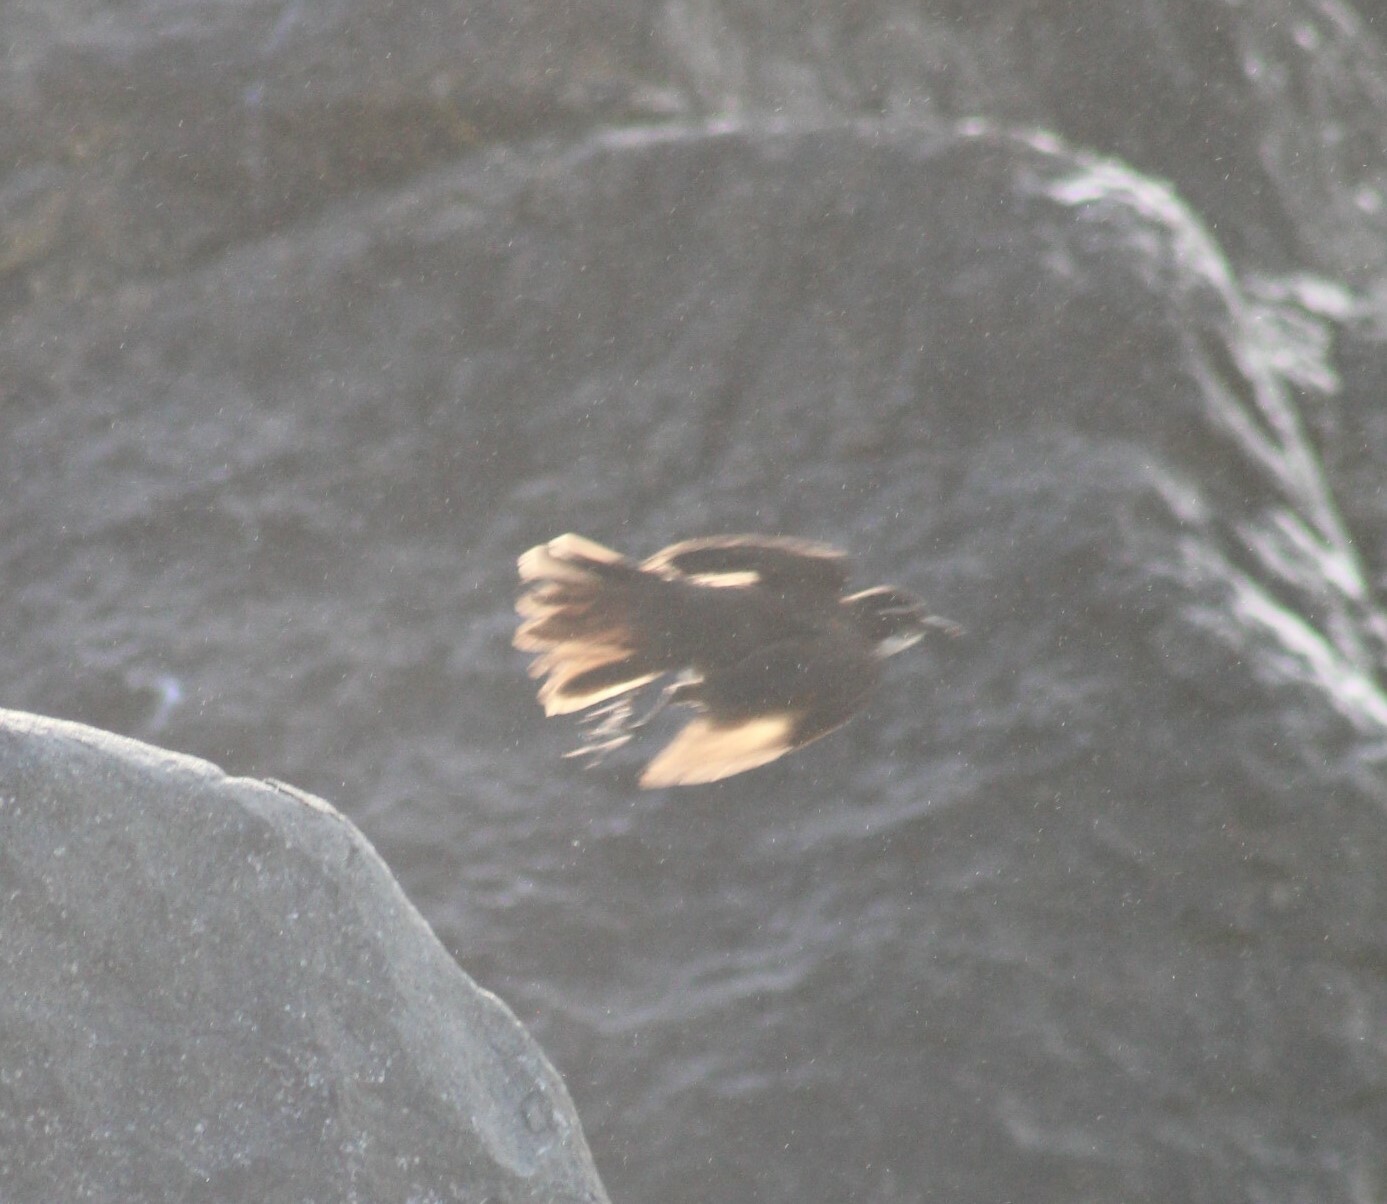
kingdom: Animalia
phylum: Chordata
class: Aves
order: Passeriformes
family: Furnariidae
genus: Cinclodes
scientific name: Cinclodes nigrofumosus
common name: Chilean seaside cinclodes
